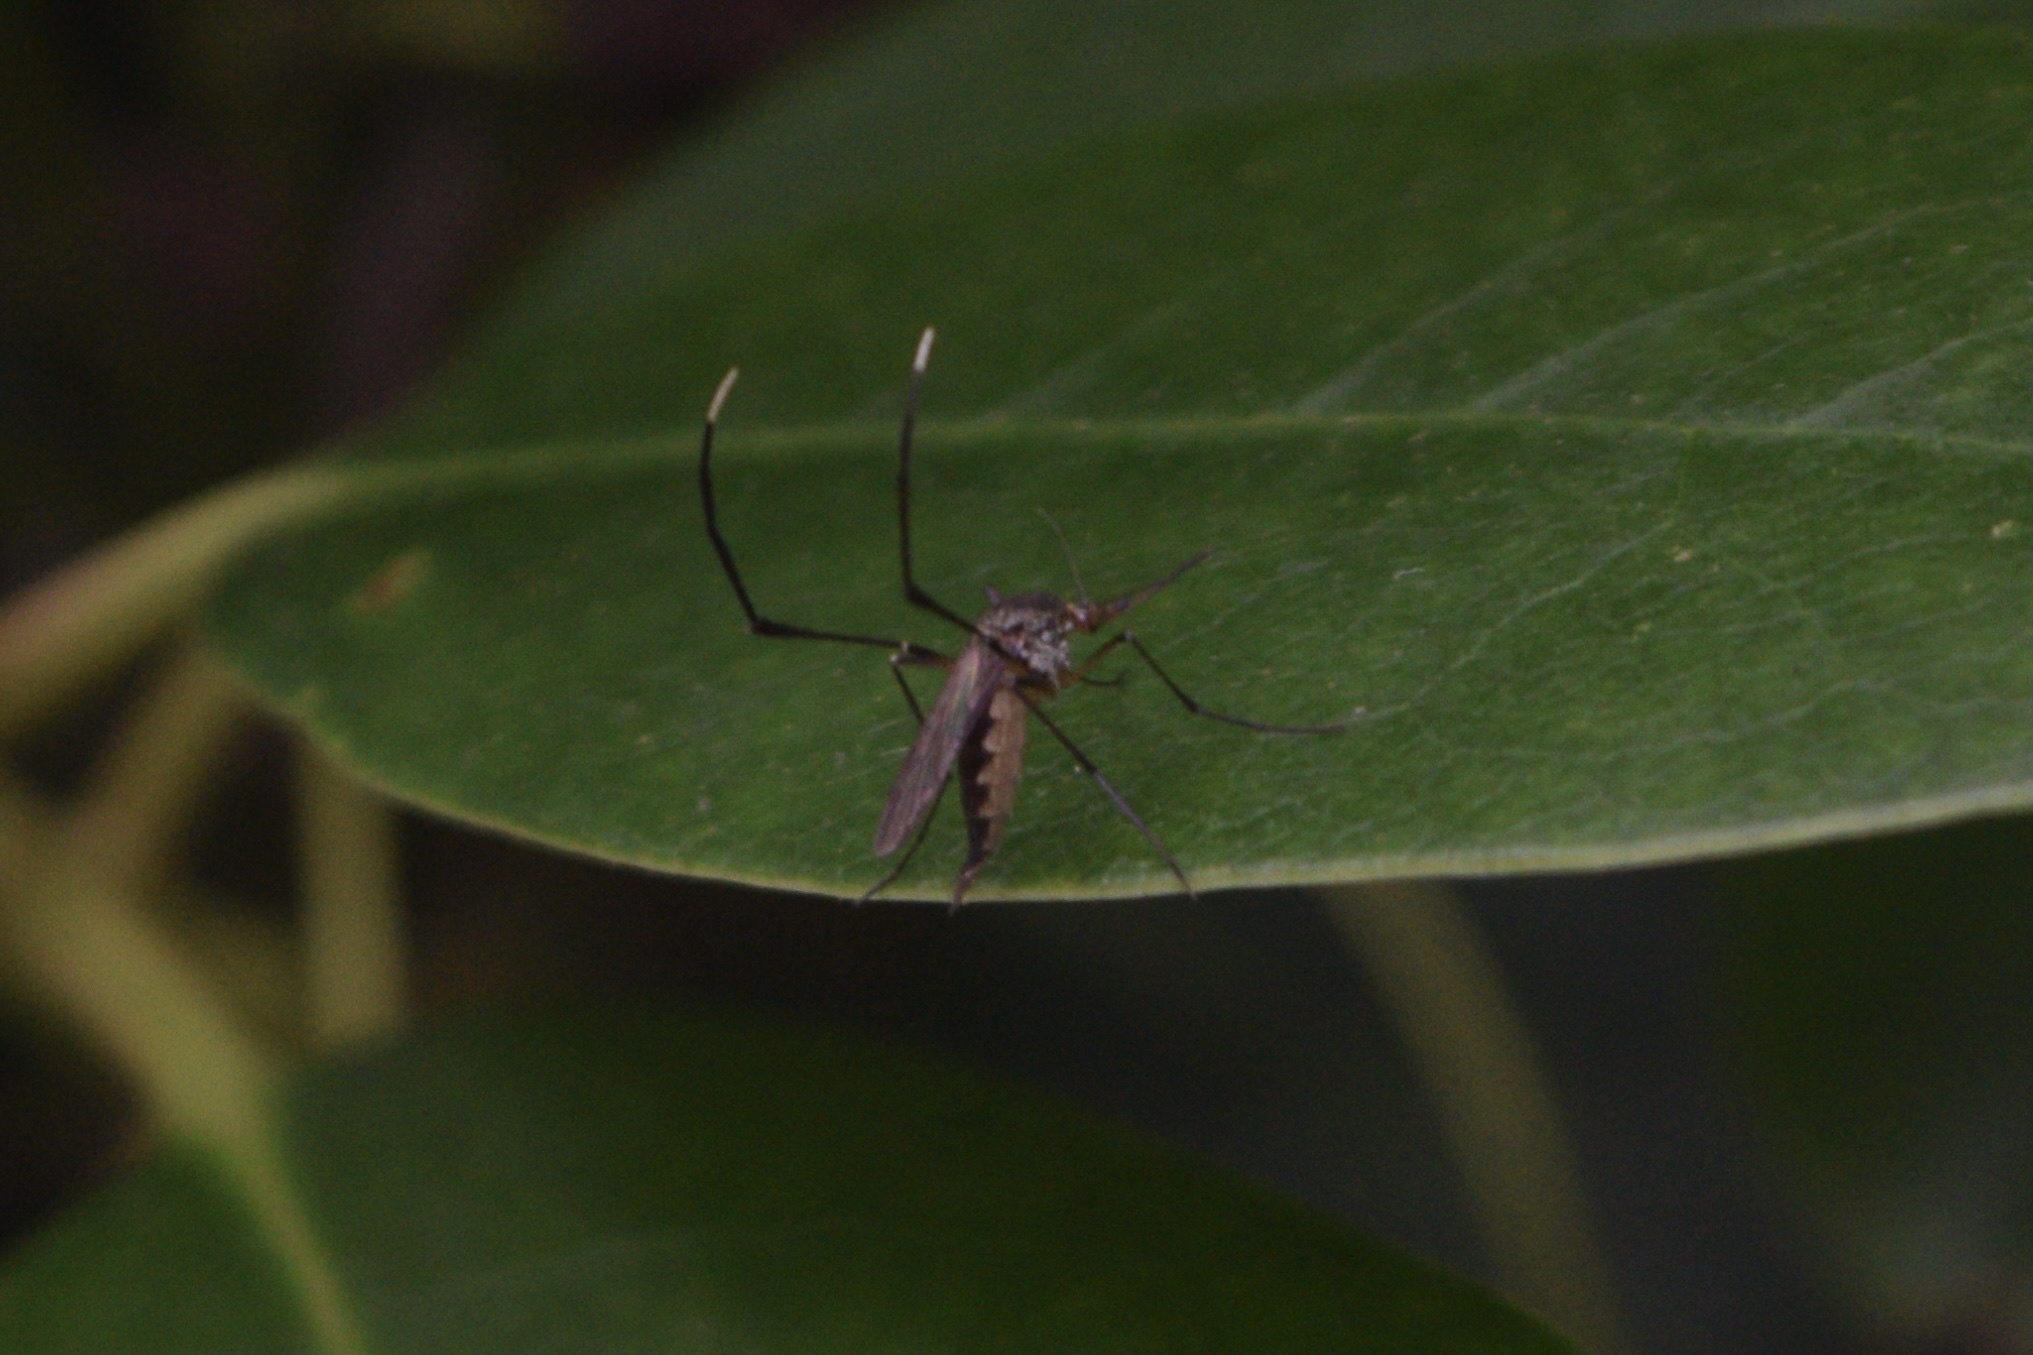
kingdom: Animalia
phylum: Arthropoda
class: Insecta
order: Diptera
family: Culicidae
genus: Psorophora
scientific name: Psorophora ferox
